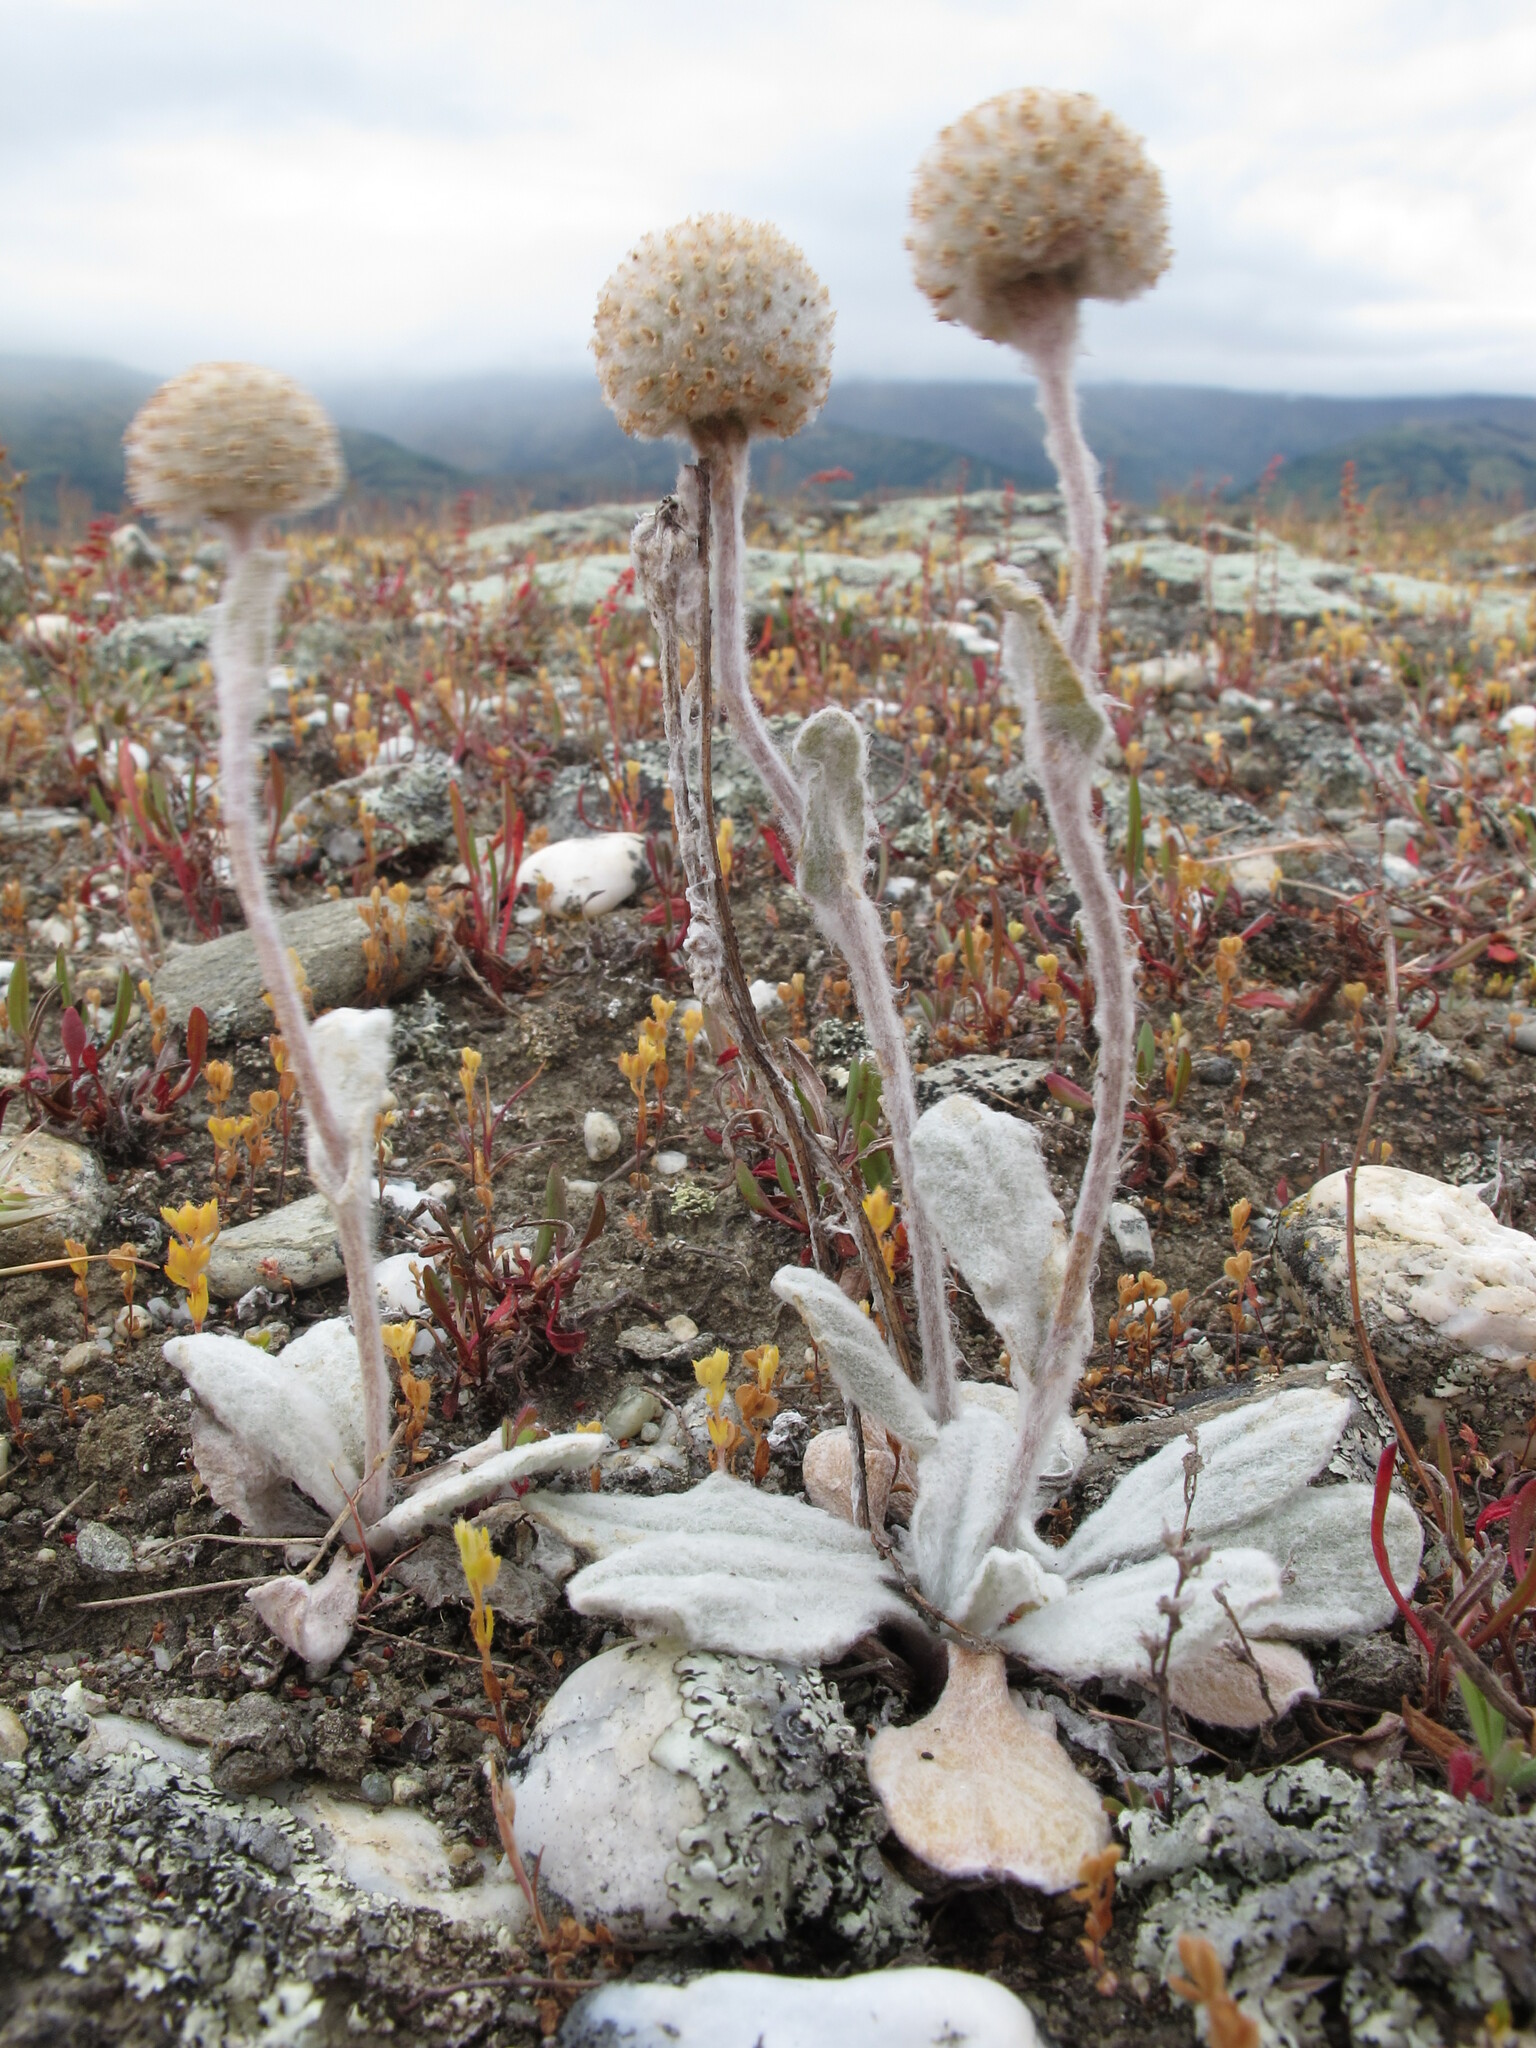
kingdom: Plantae
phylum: Tracheophyta
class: Magnoliopsida
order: Asterales
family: Asteraceae
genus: Craspedia
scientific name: Craspedia
